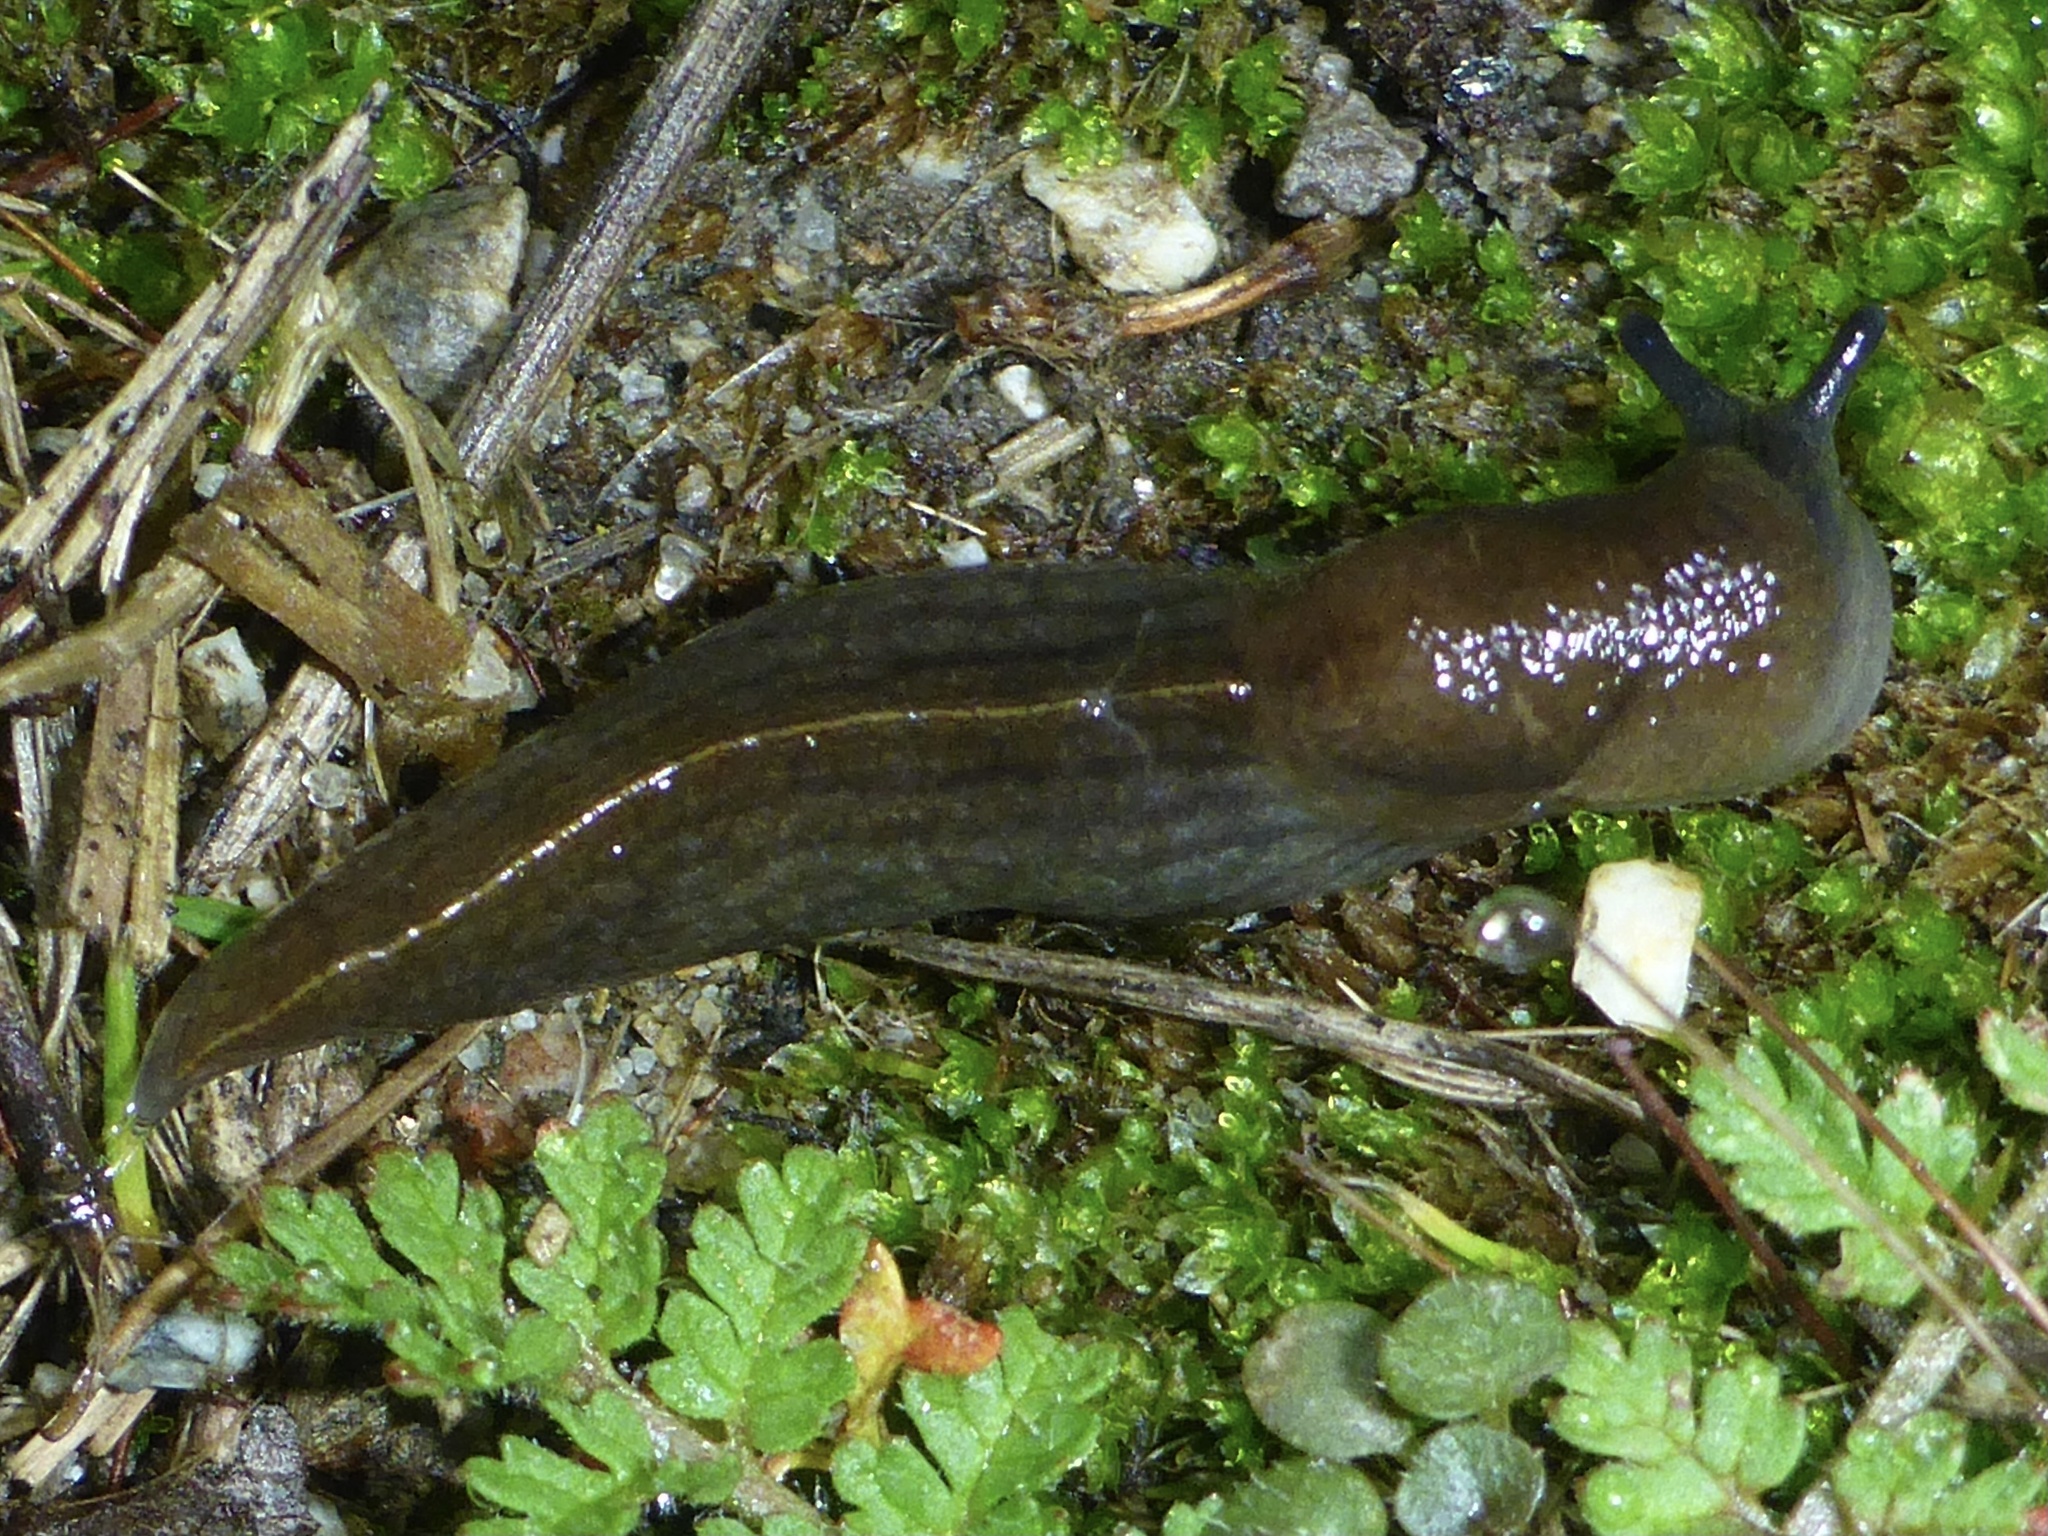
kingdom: Animalia
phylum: Mollusca
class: Gastropoda
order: Stylommatophora
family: Milacidae
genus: Milax
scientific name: Milax gagates
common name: Greenhouse slug
